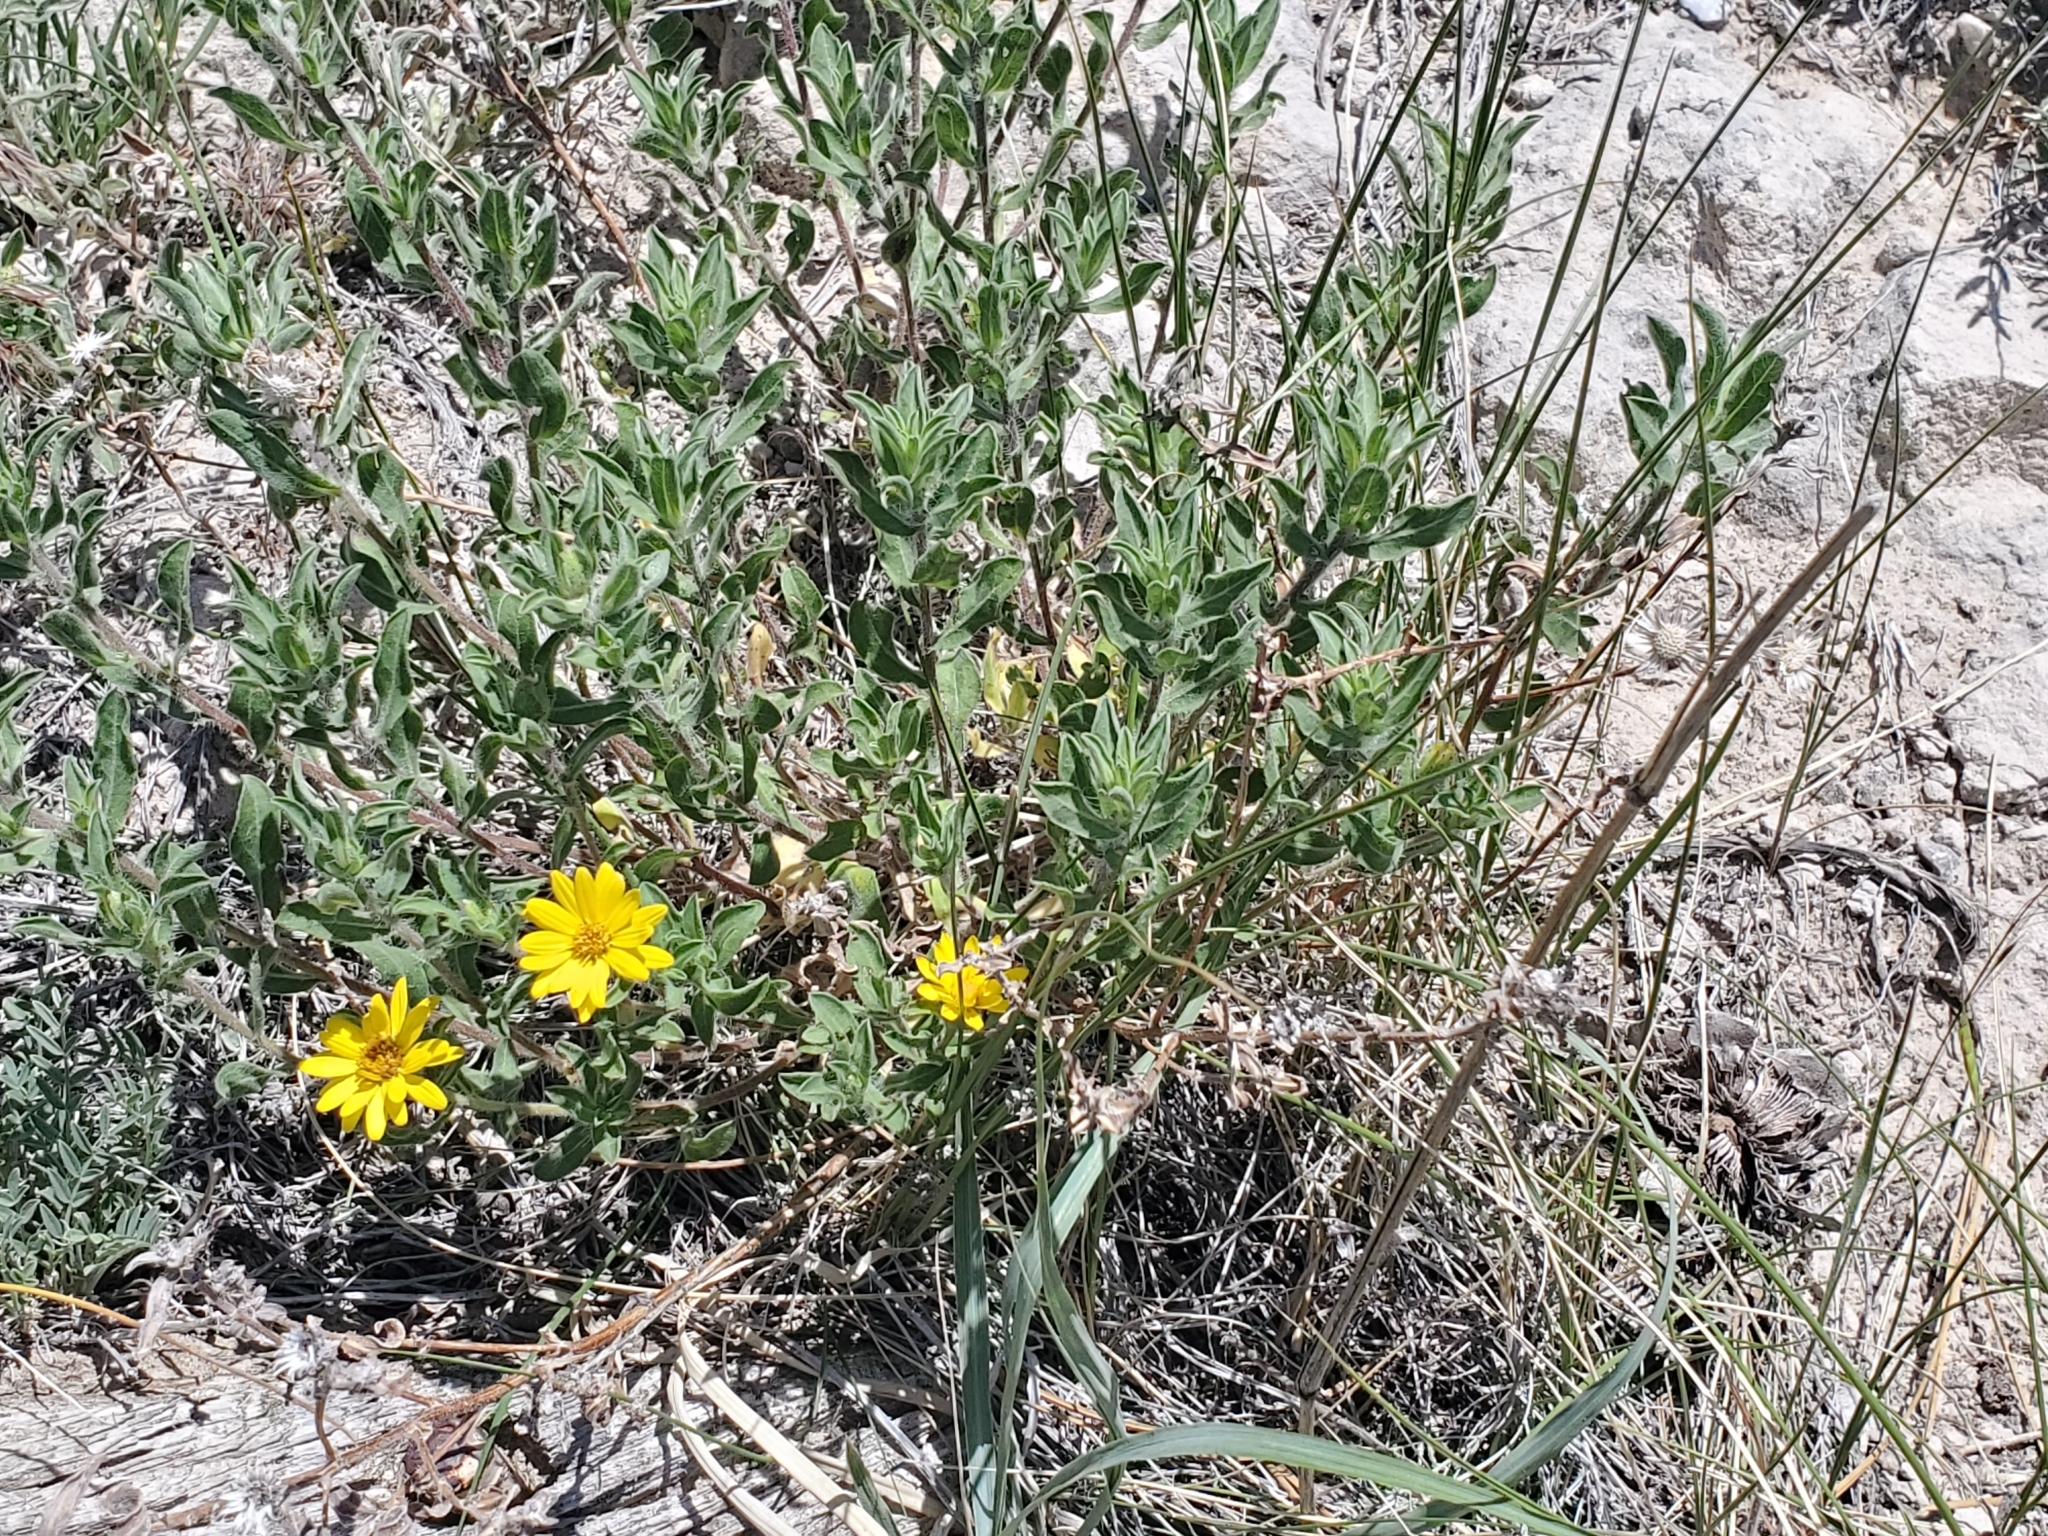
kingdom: Plantae
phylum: Tracheophyta
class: Magnoliopsida
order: Asterales
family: Asteraceae
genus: Heterotheca
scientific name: Heterotheca hirsutissima
